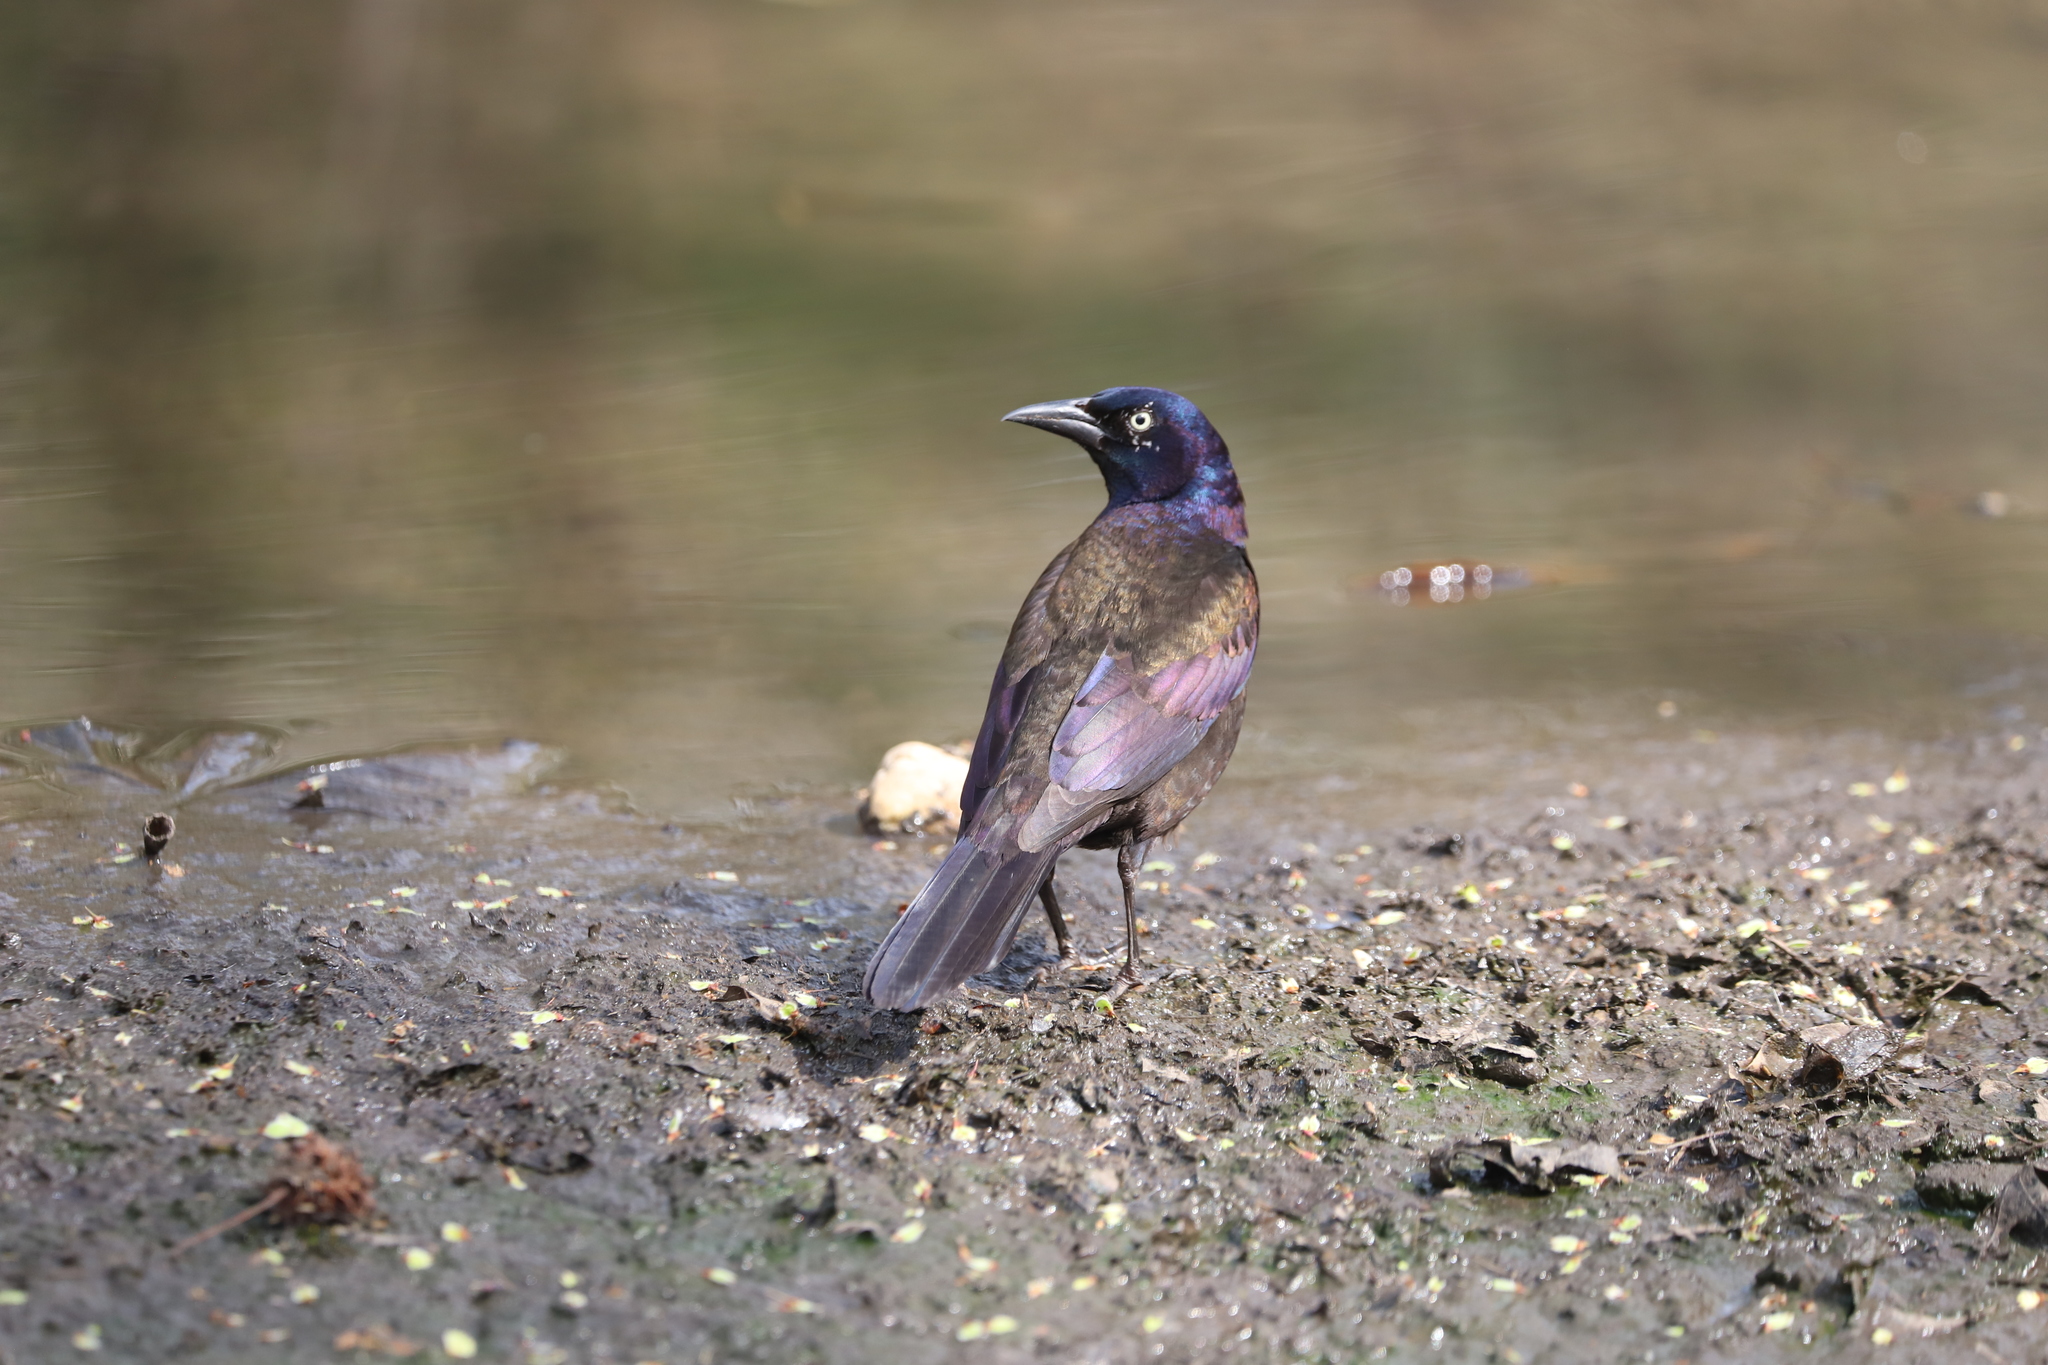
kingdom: Animalia
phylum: Chordata
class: Aves
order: Passeriformes
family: Icteridae
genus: Quiscalus
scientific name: Quiscalus quiscula
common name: Common grackle
